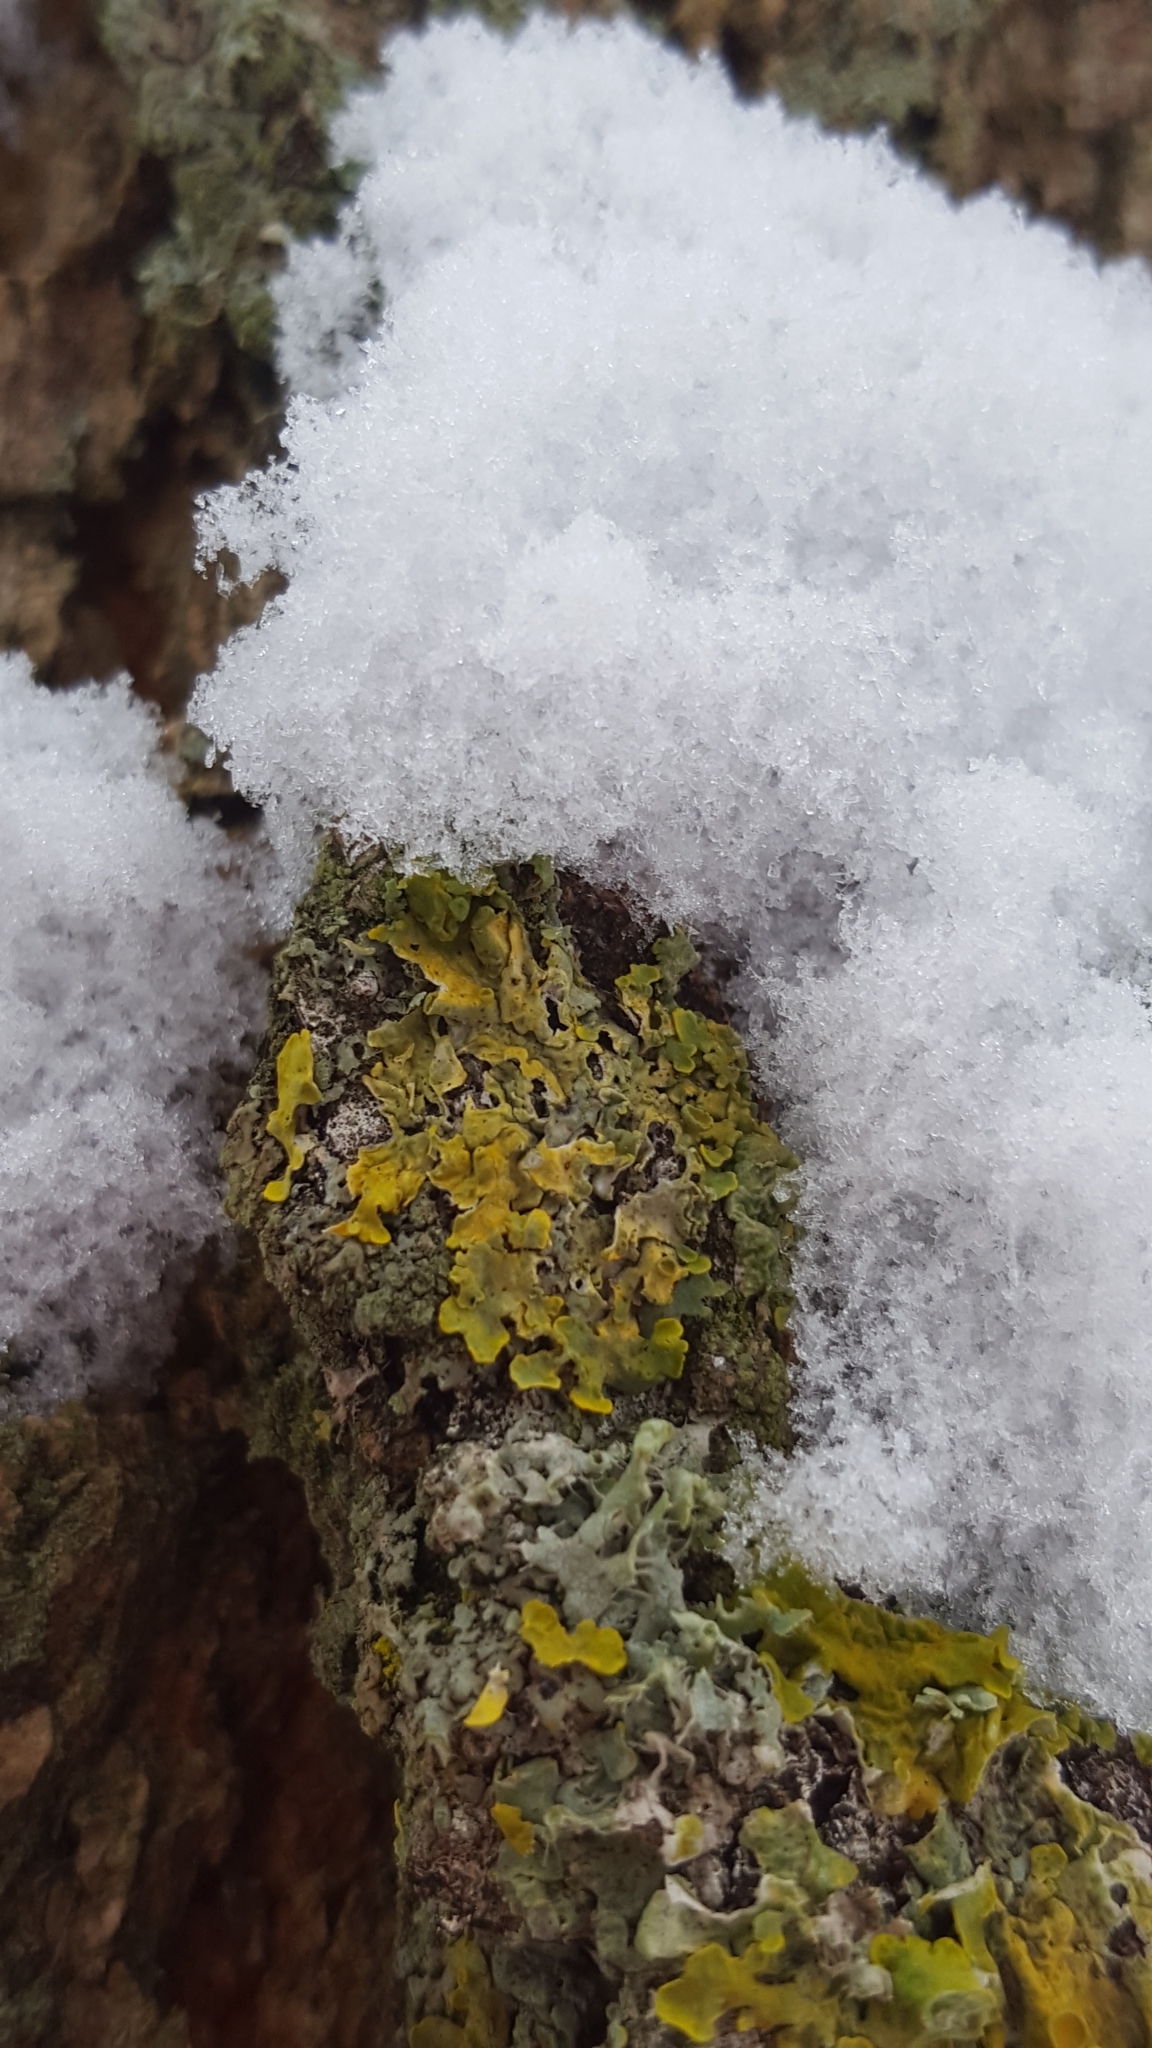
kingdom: Fungi
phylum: Ascomycota
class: Lecanoromycetes
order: Teloschistales
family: Teloschistaceae
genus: Xanthoria
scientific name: Xanthoria parietina
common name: Common orange lichen
